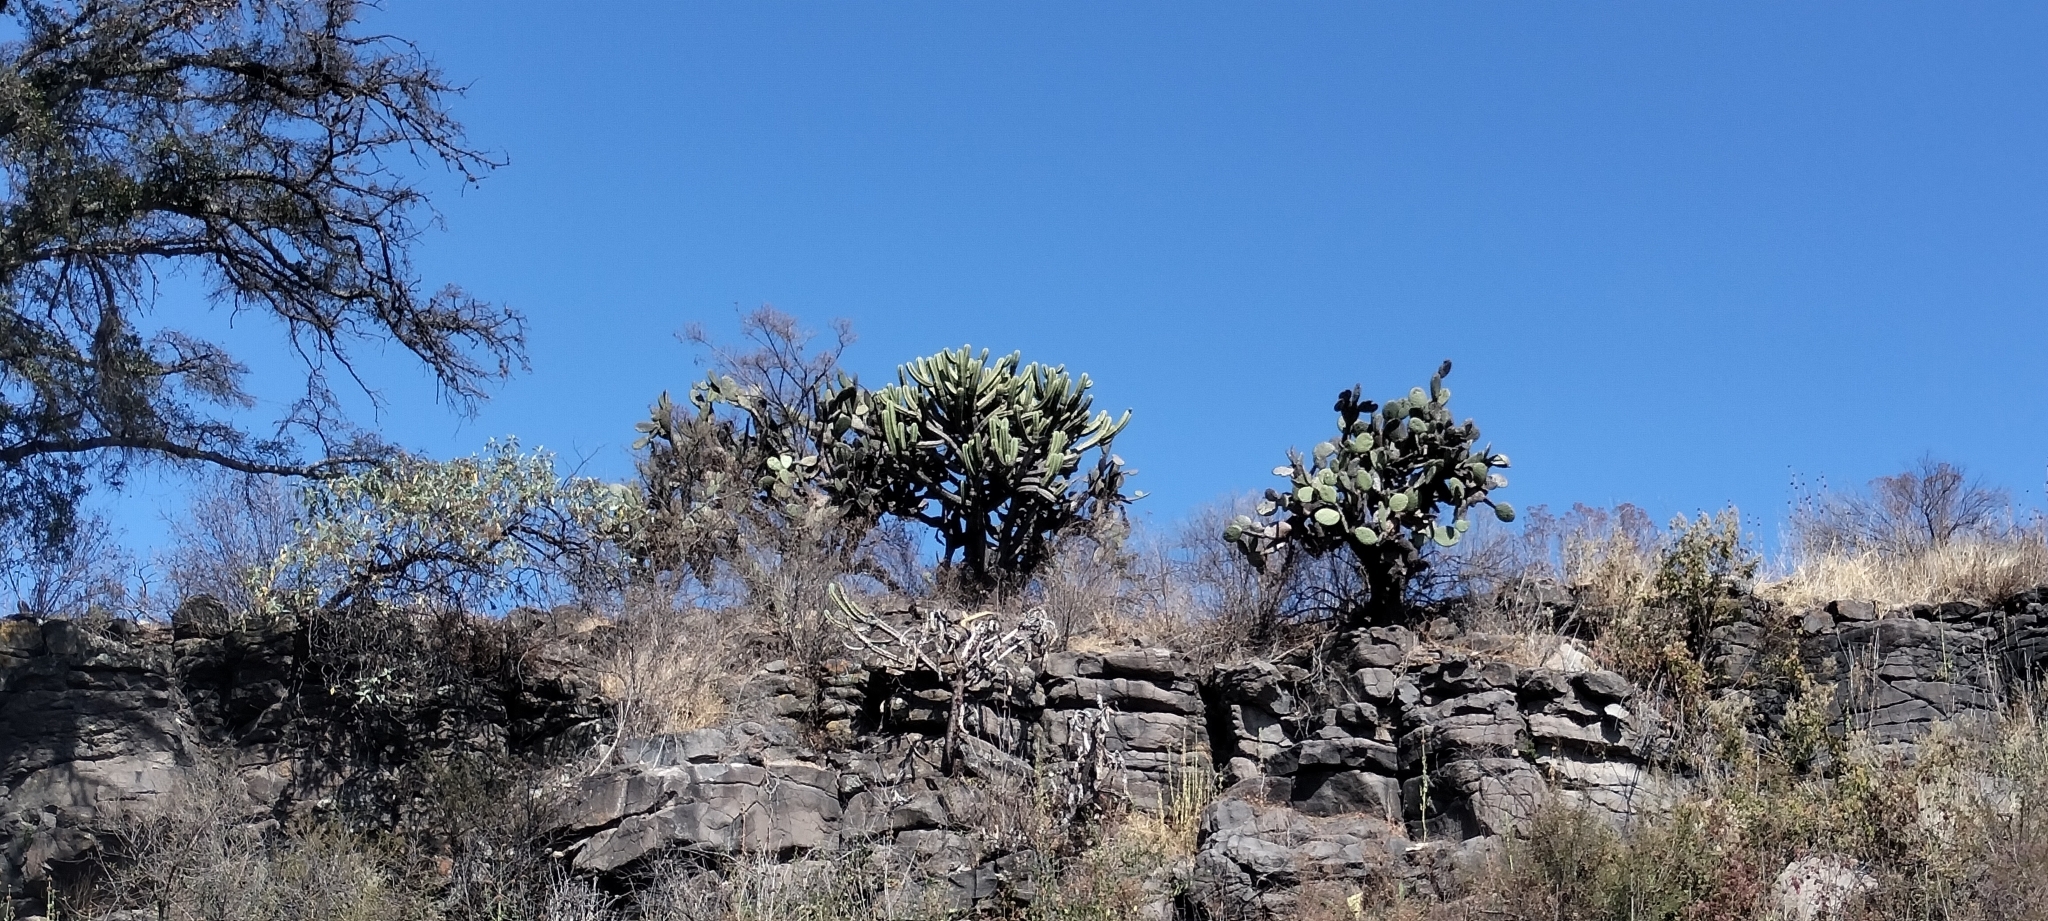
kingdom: Plantae
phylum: Tracheophyta
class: Magnoliopsida
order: Caryophyllales
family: Cactaceae
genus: Myrtillocactus
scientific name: Myrtillocactus geometrizans
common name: Bilberry cactus
